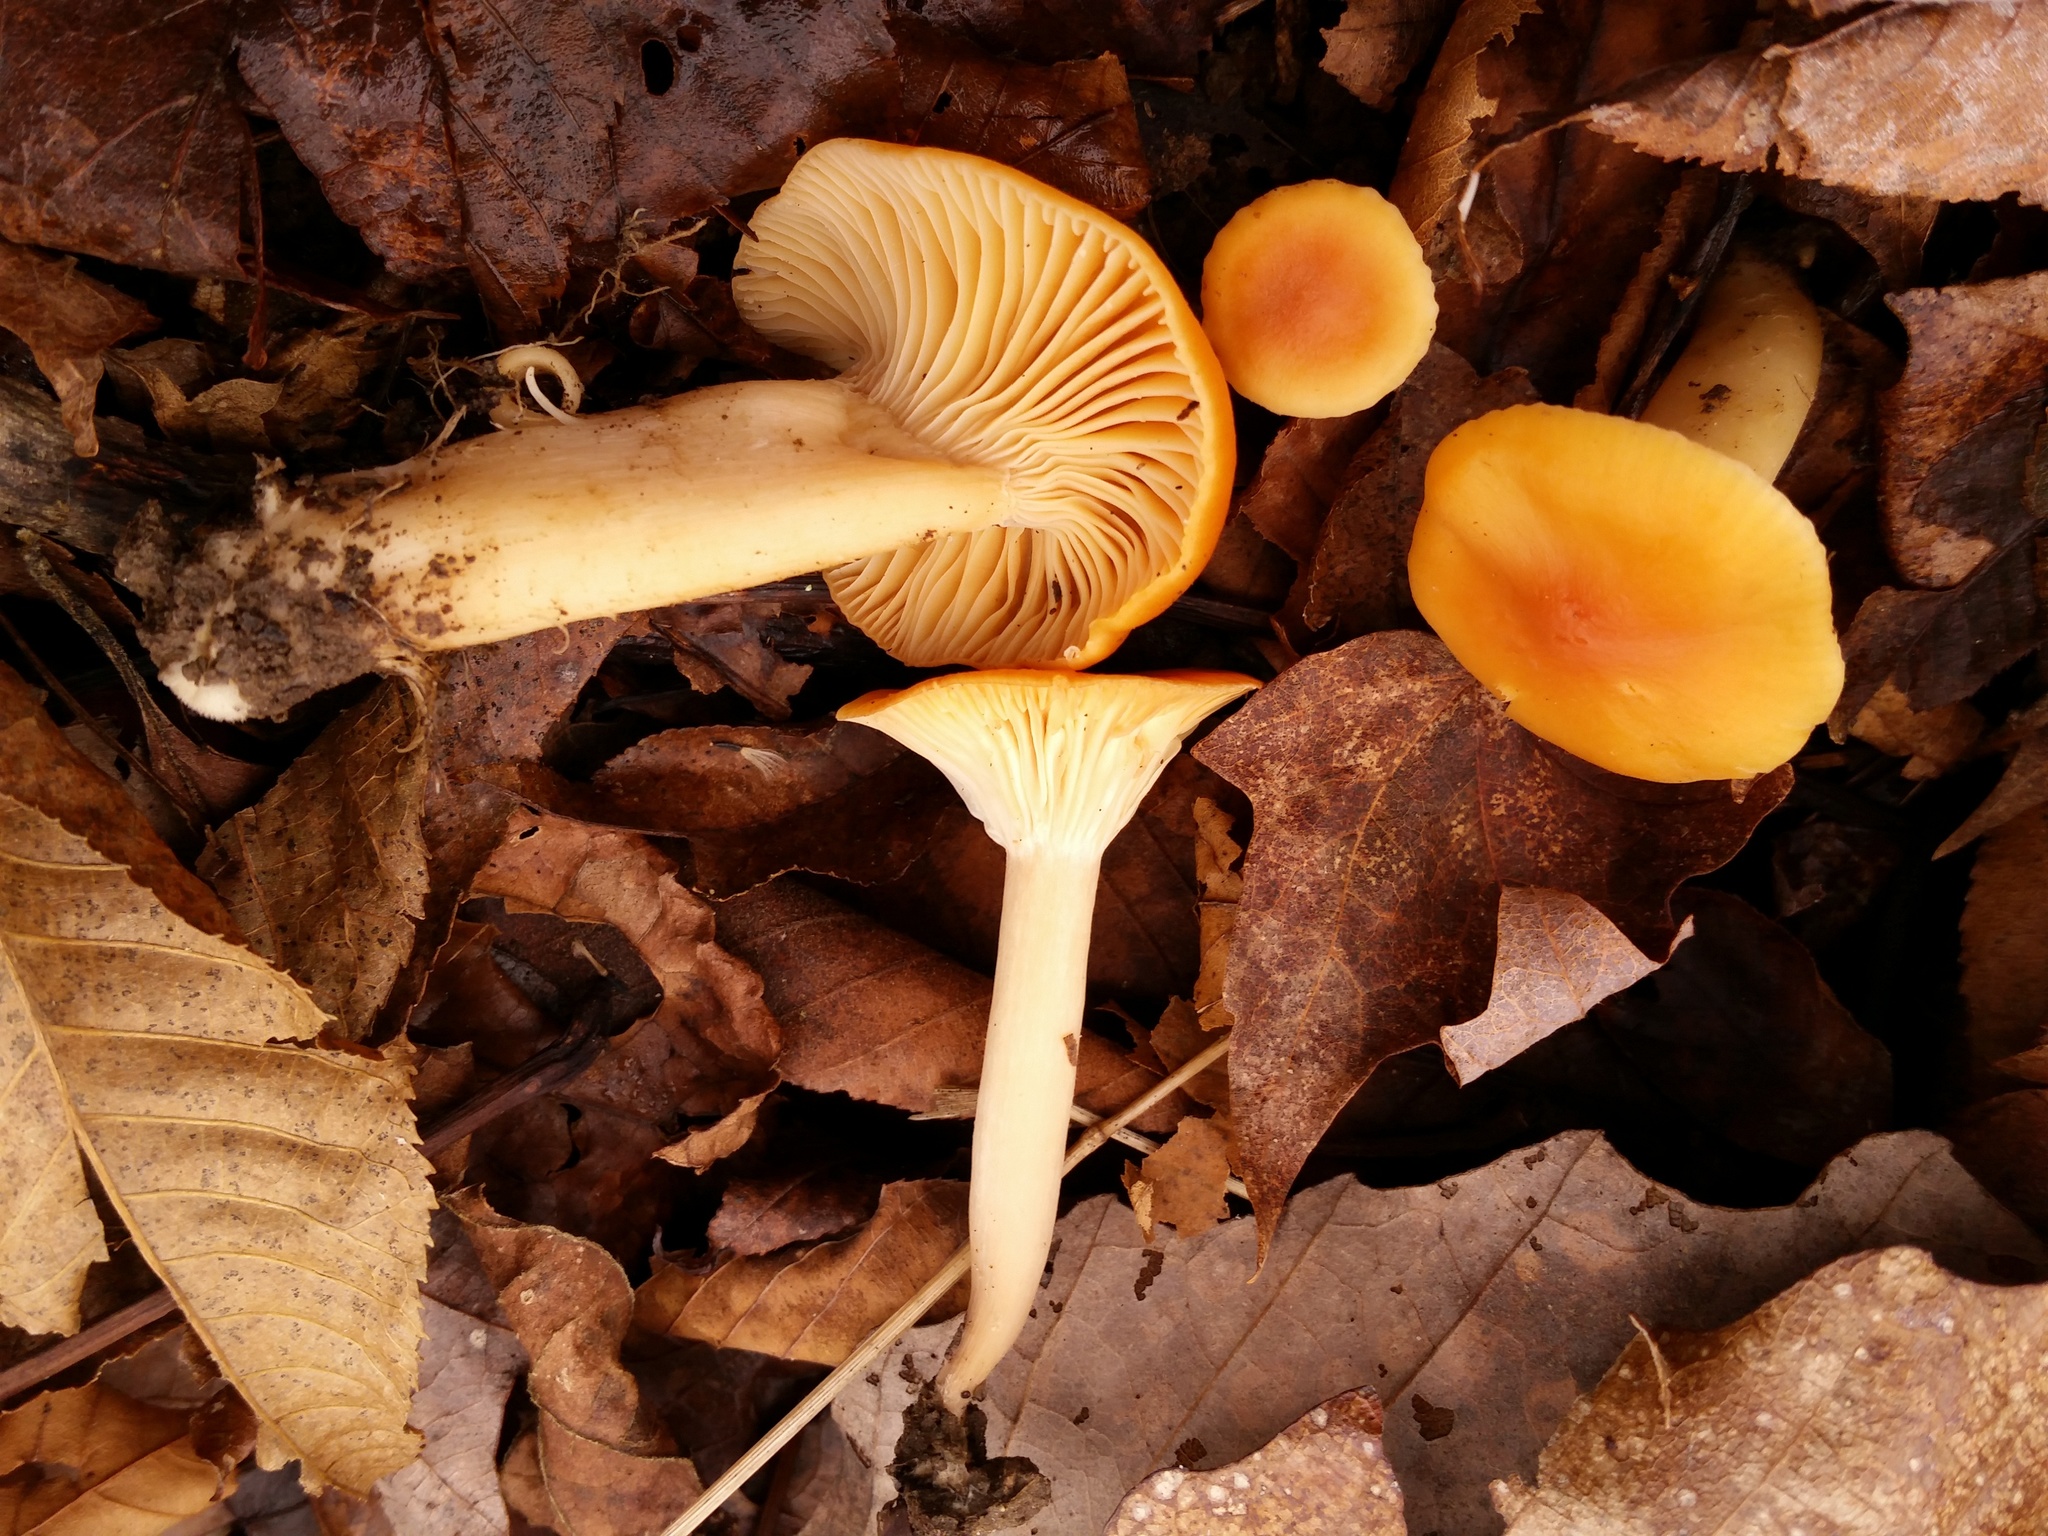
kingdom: Fungi
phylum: Basidiomycota
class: Agaricomycetes
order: Agaricales
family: Hygrophoraceae
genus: Cuphophyllus
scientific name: Cuphophyllus pratensis
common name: Meadow waxcap
